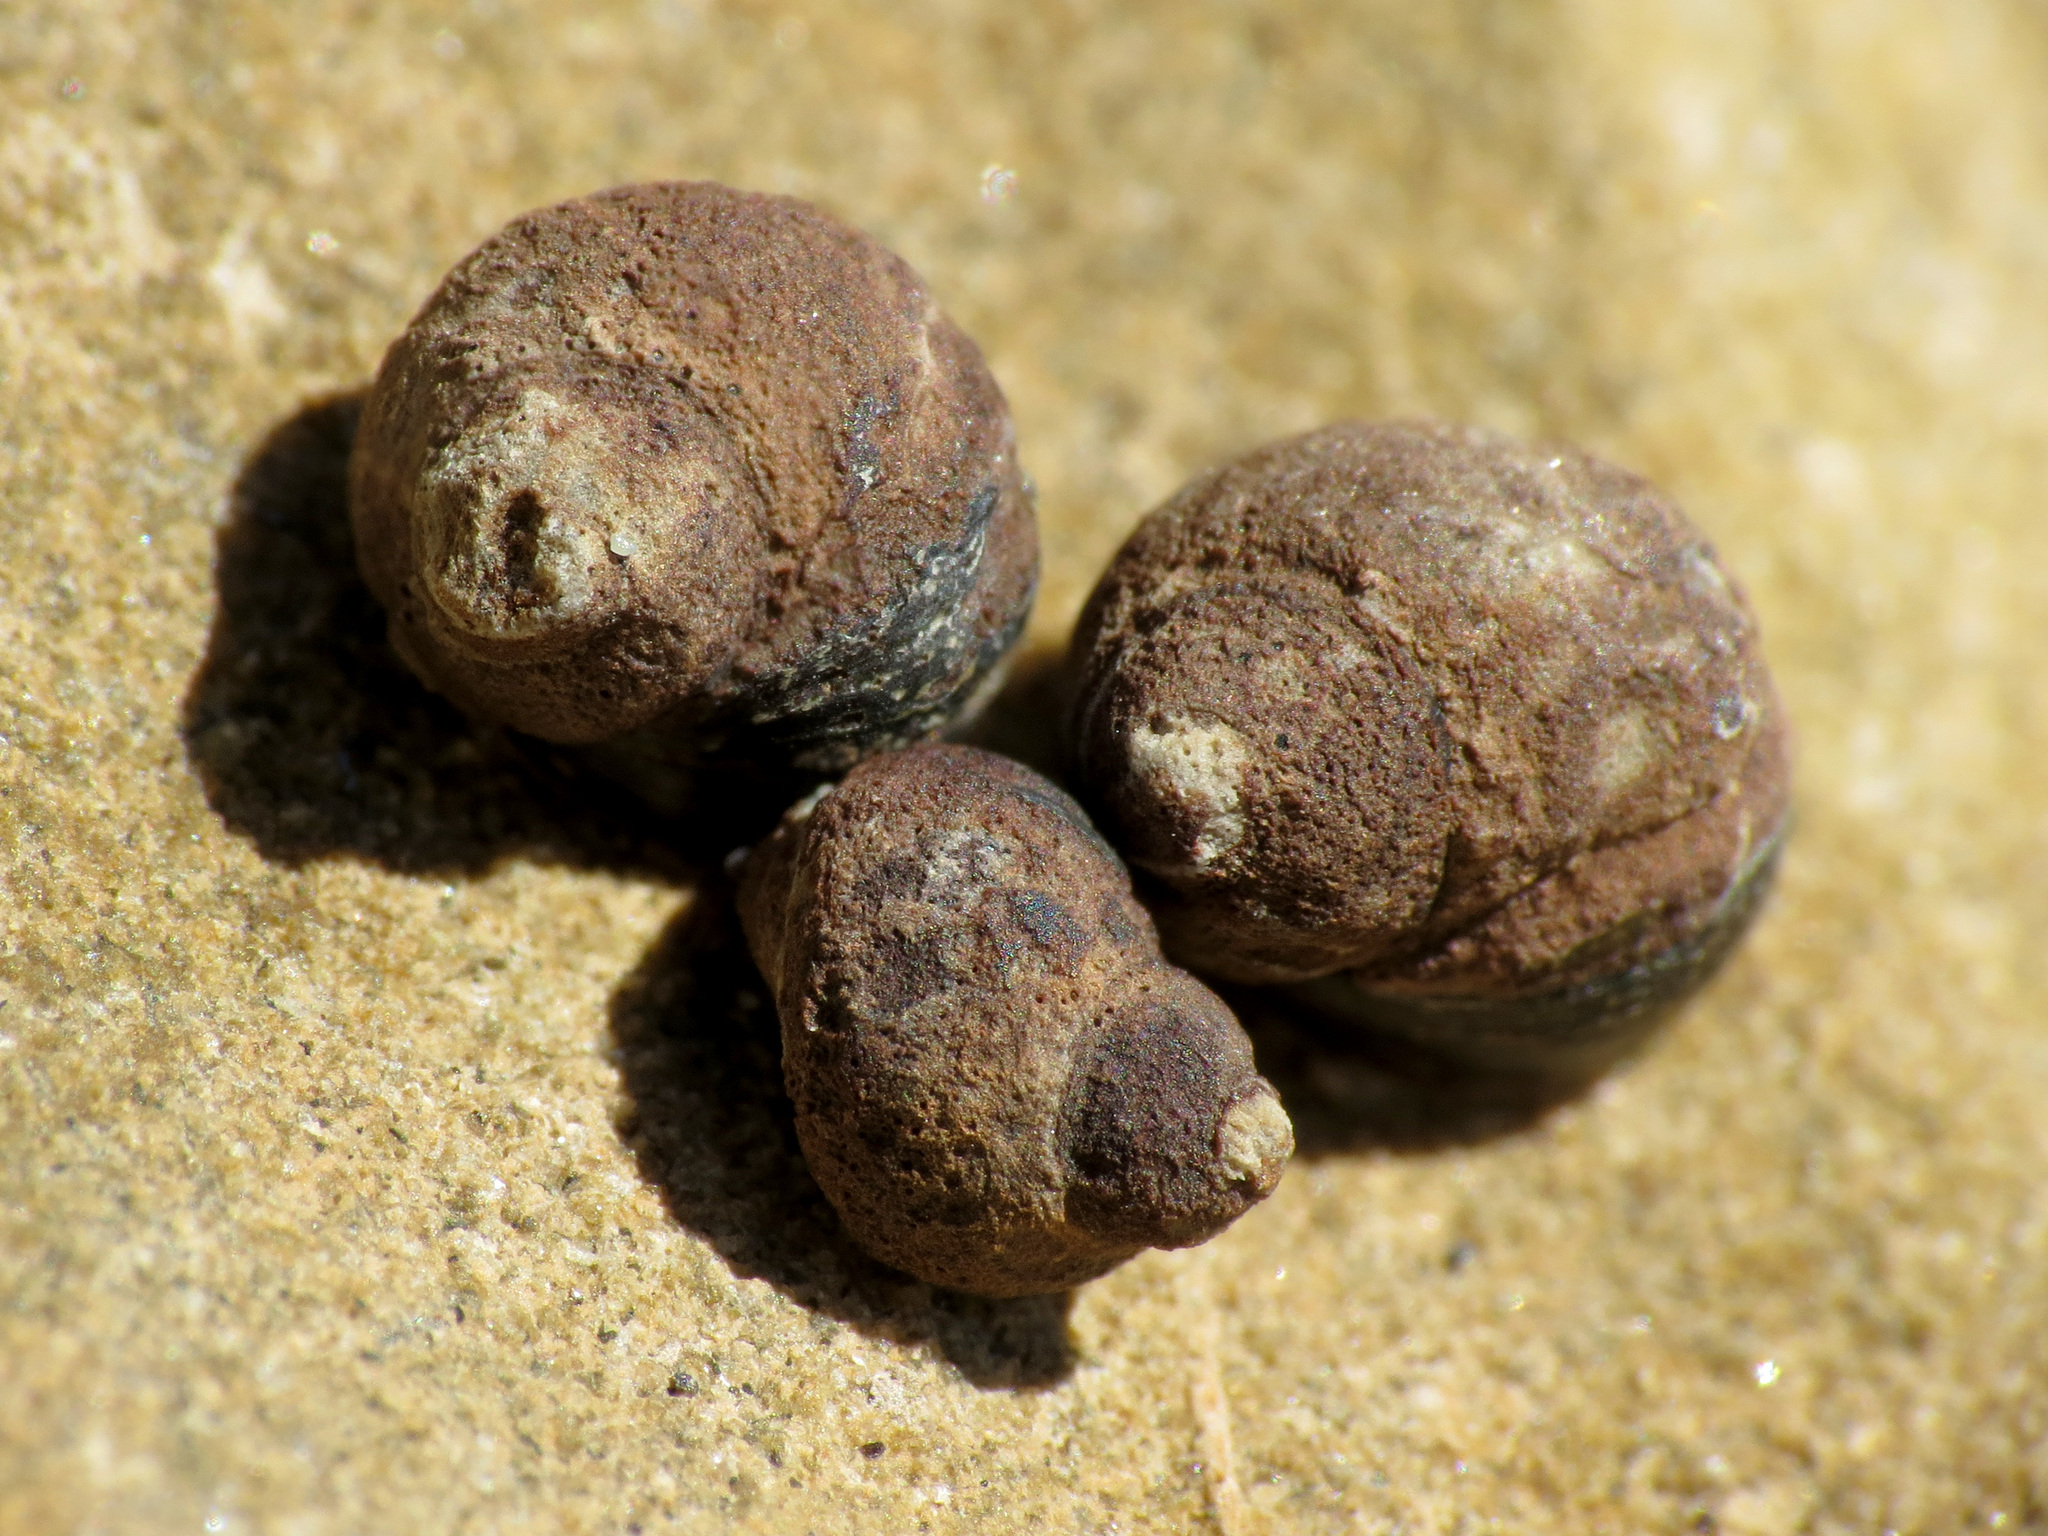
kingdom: Animalia
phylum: Mollusca
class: Gastropoda
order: Littorinimorpha
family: Littorinidae
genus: Austrolittorina
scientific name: Austrolittorina cincta
